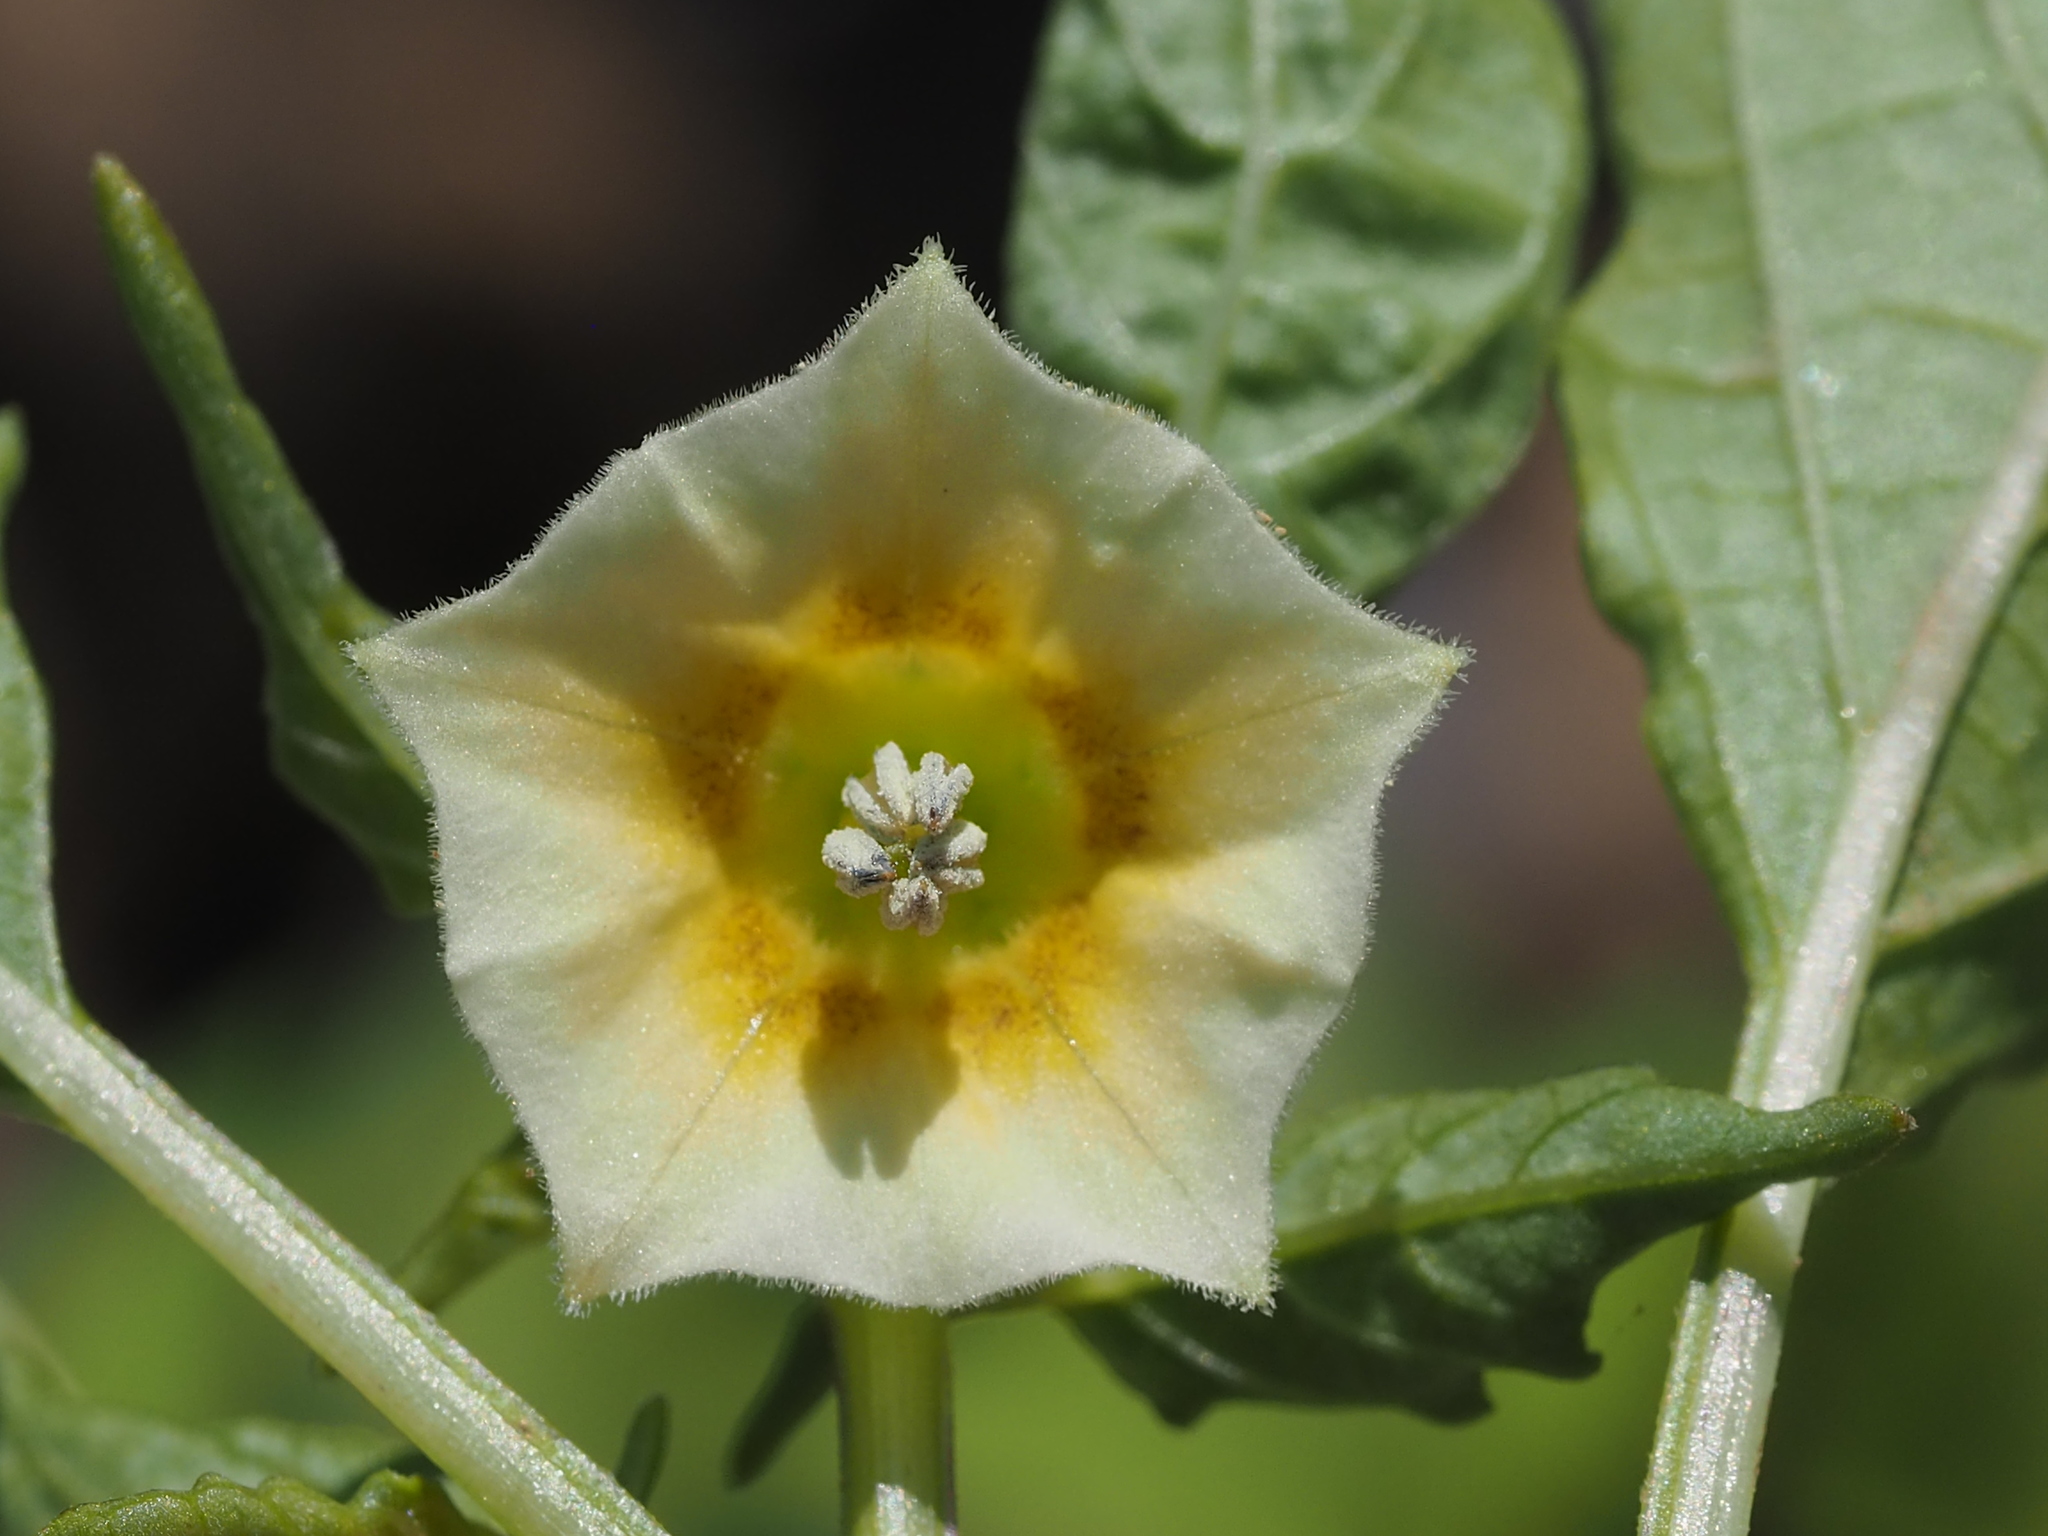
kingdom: Plantae
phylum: Tracheophyta
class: Magnoliopsida
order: Solanales
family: Solanaceae
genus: Physalis
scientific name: Physalis angulata
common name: Angular winter-cherry
